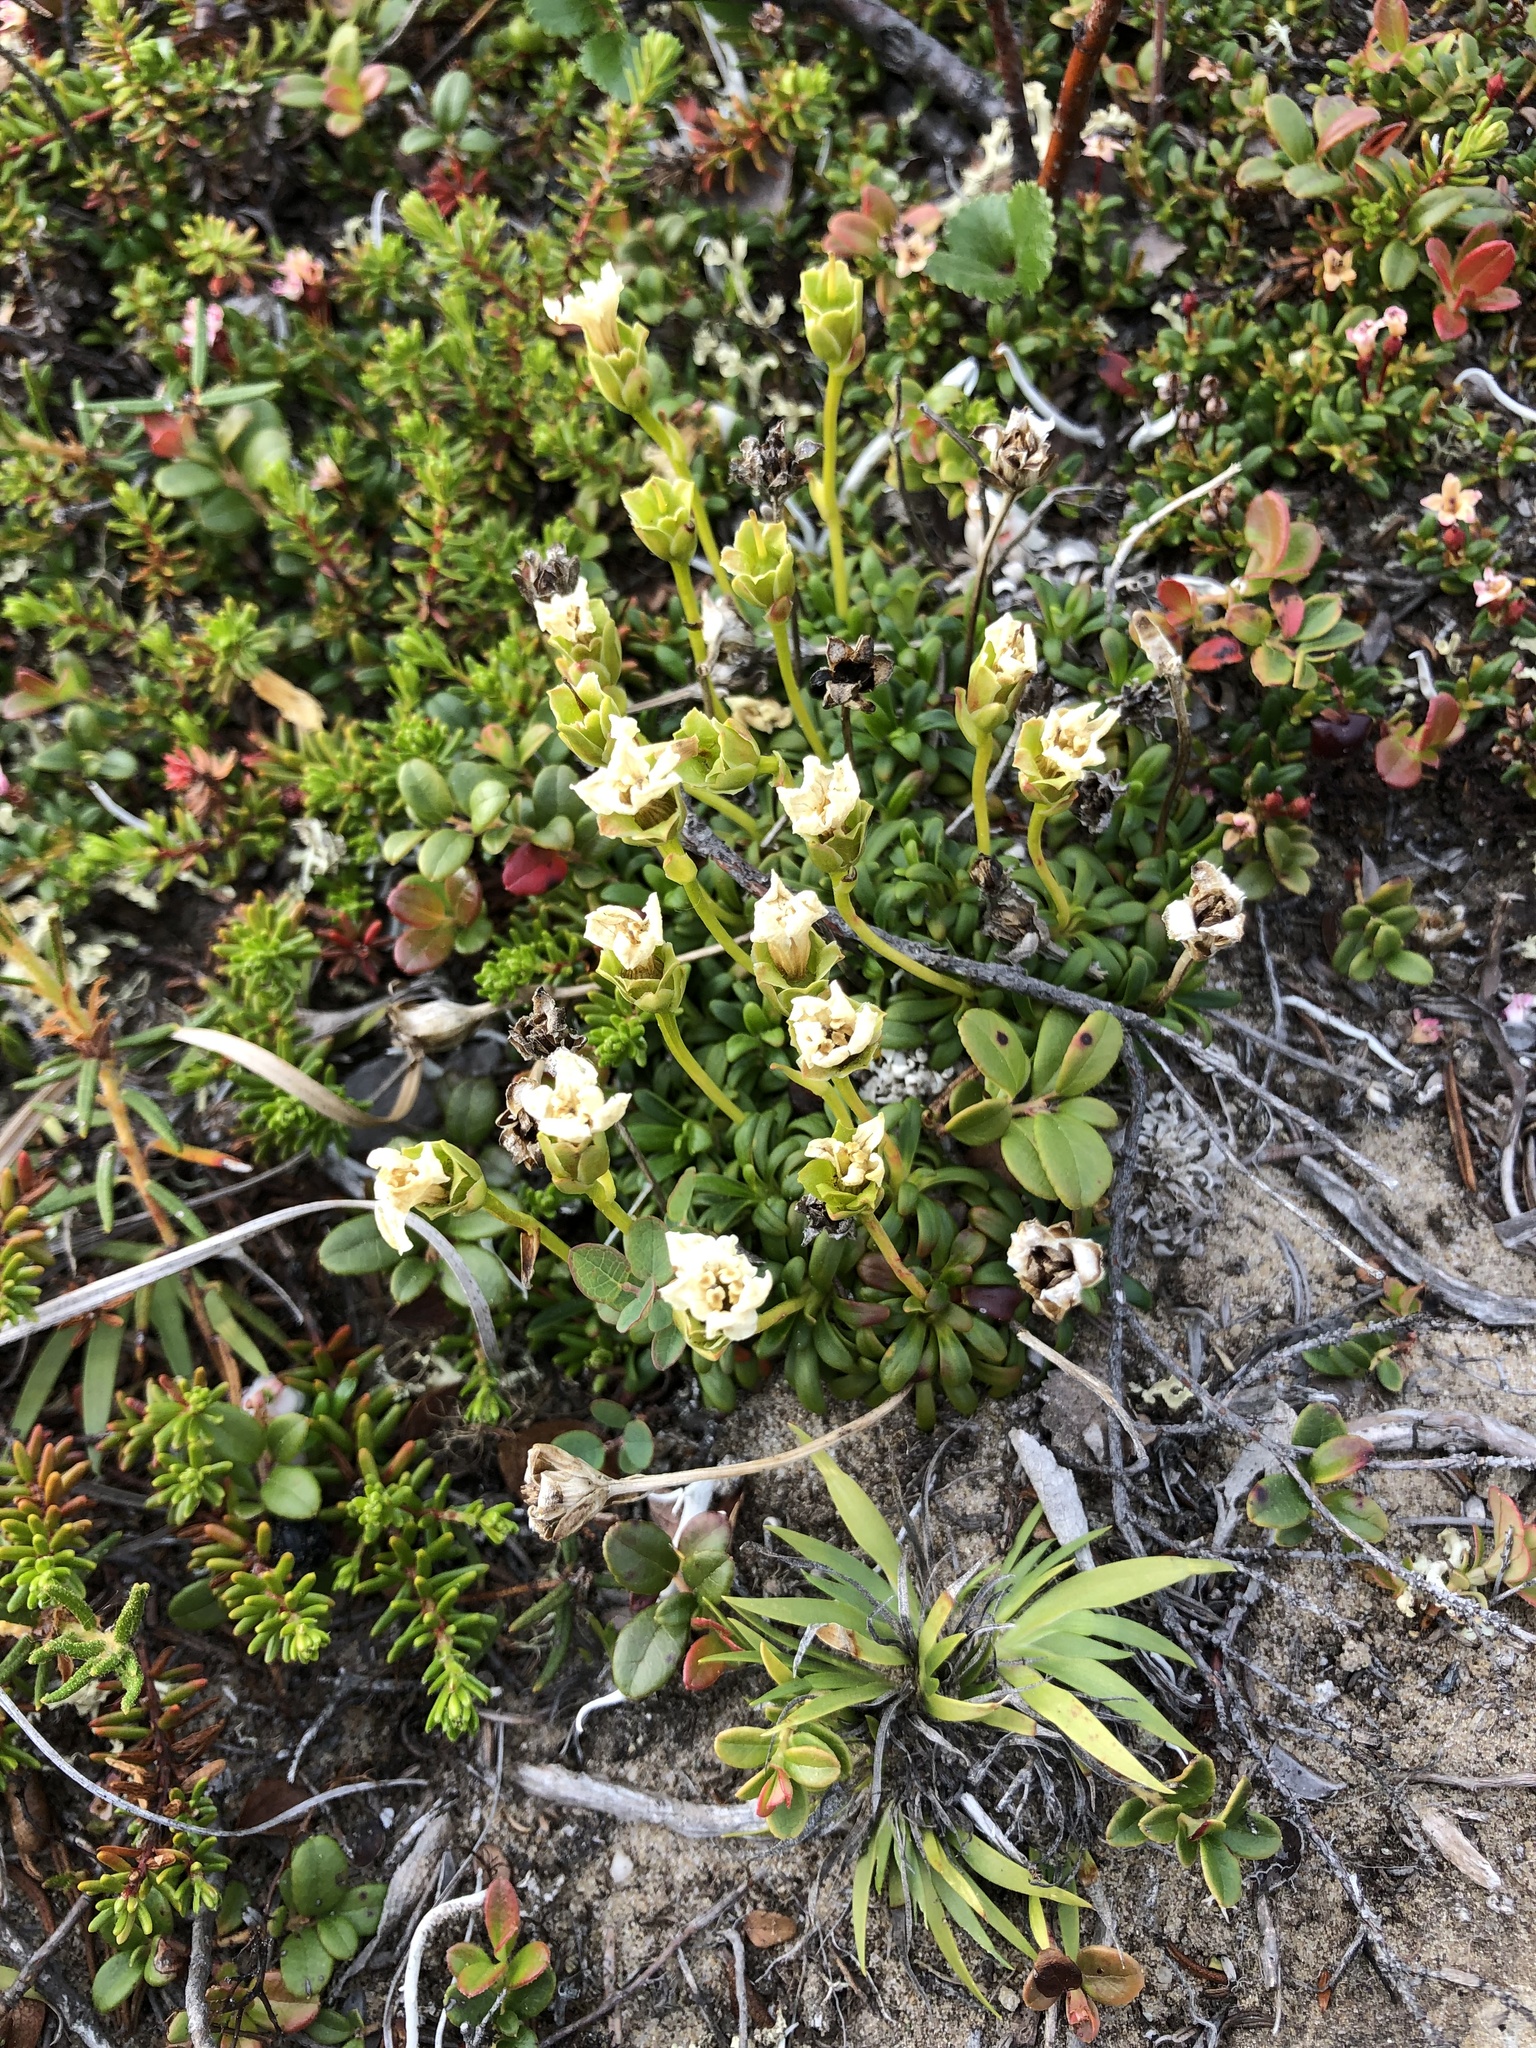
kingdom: Plantae
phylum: Tracheophyta
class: Magnoliopsida
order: Ericales
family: Diapensiaceae
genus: Diapensia
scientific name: Diapensia lapponica
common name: Diapensia
